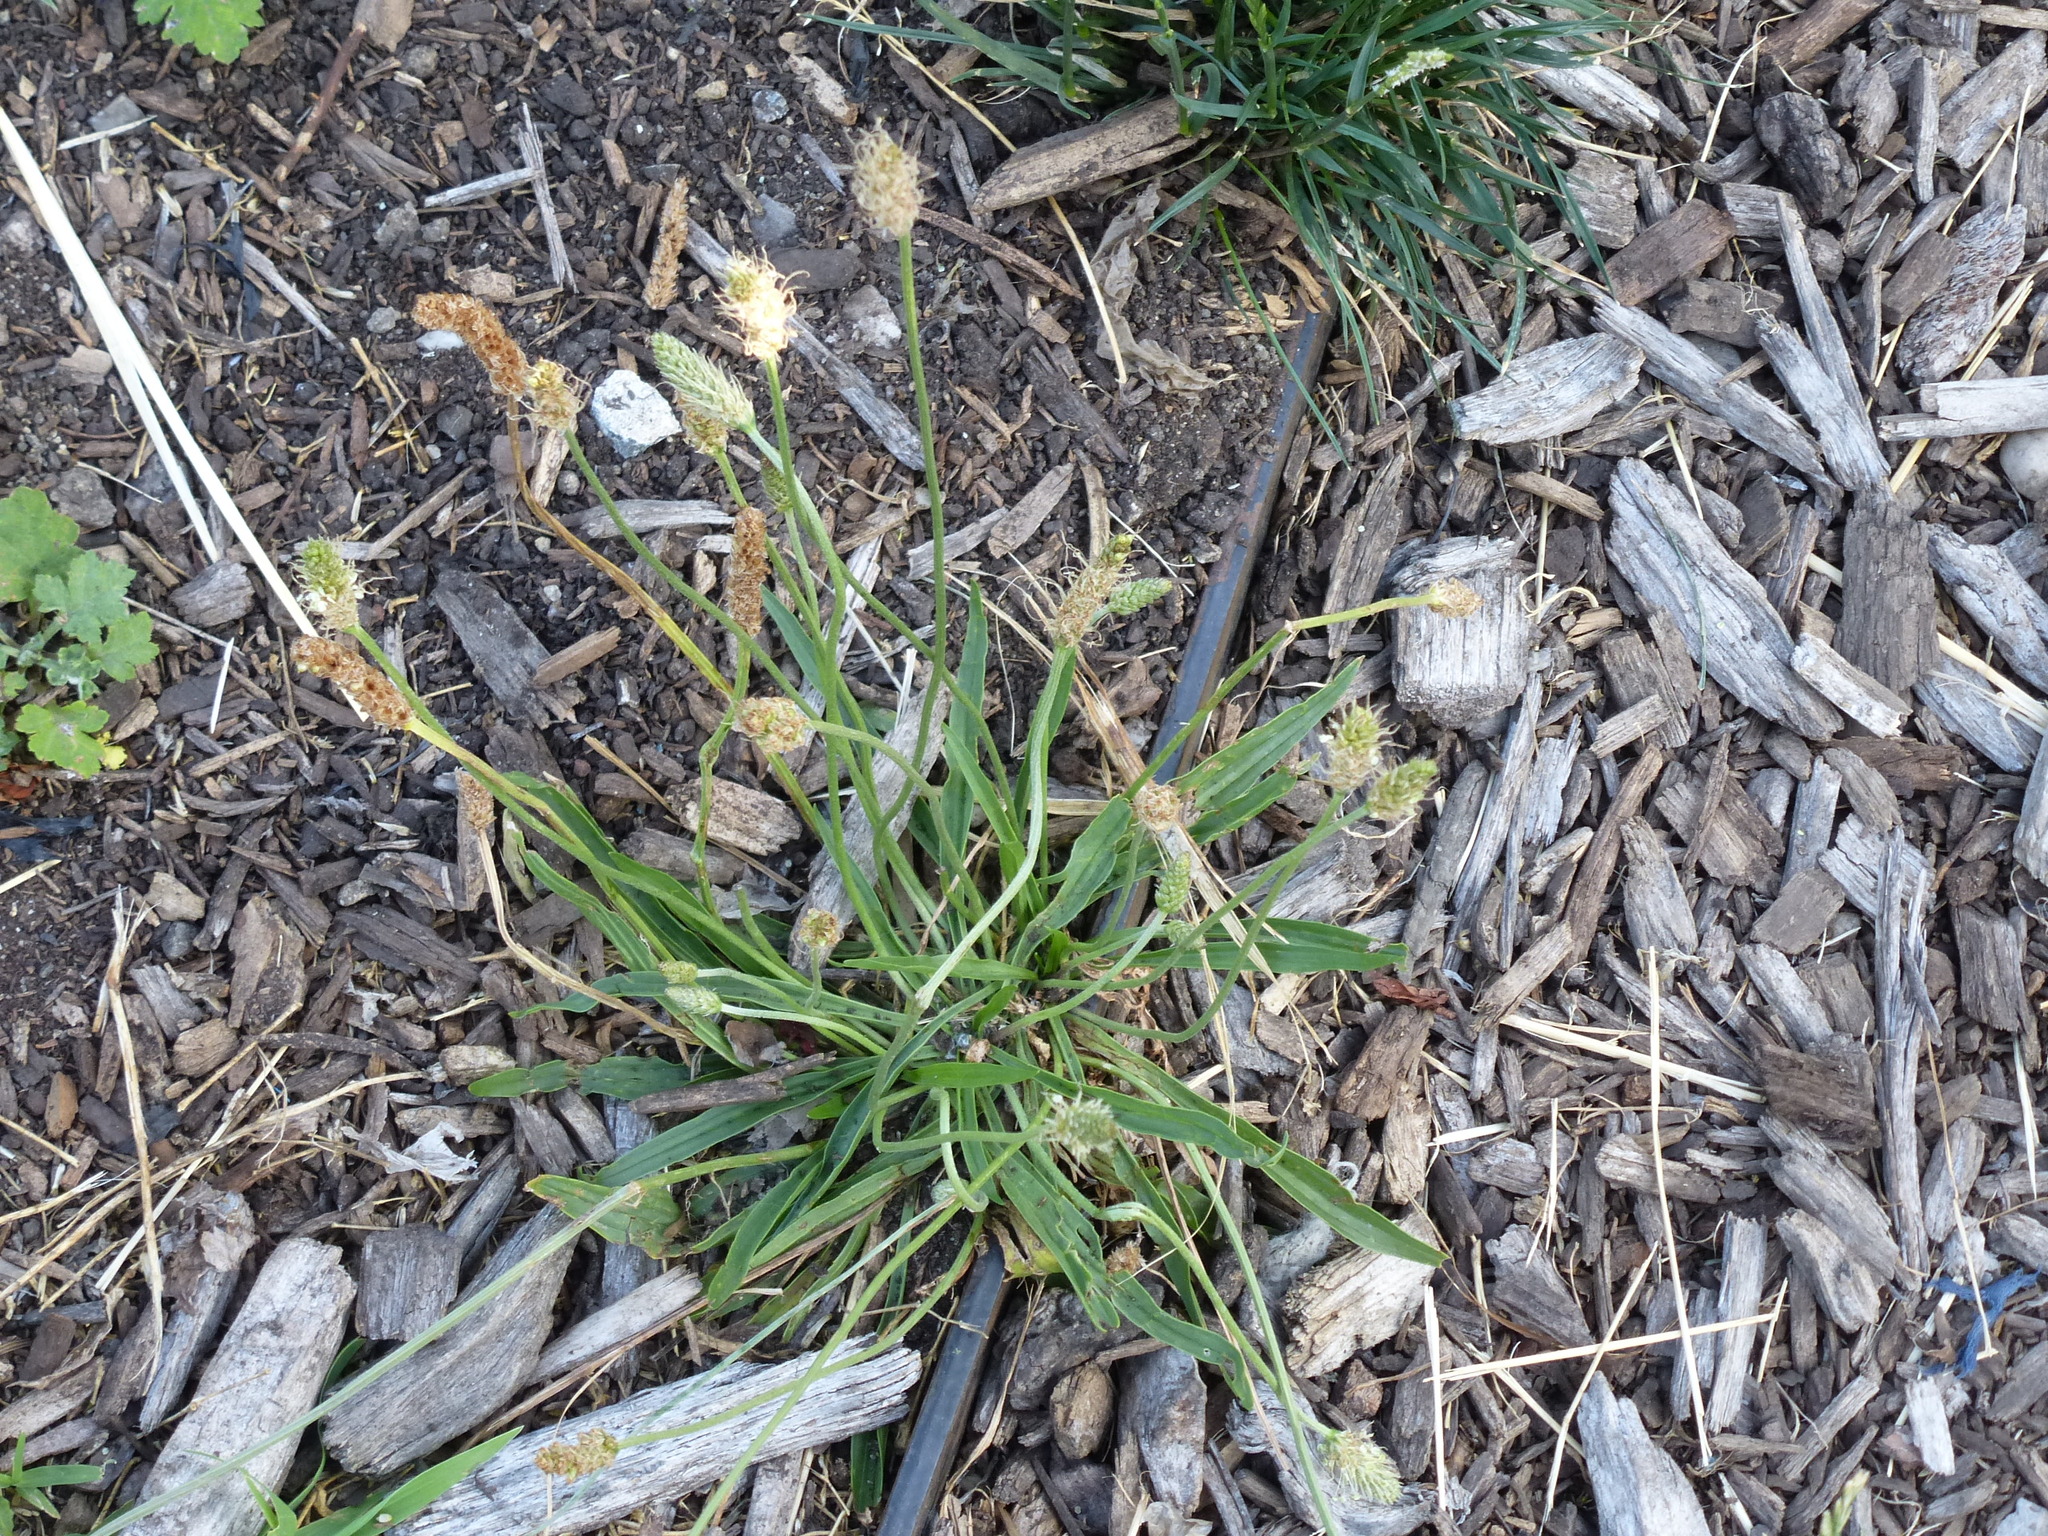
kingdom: Plantae
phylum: Tracheophyta
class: Magnoliopsida
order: Lamiales
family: Plantaginaceae
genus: Plantago
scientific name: Plantago lanceolata
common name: Ribwort plantain
